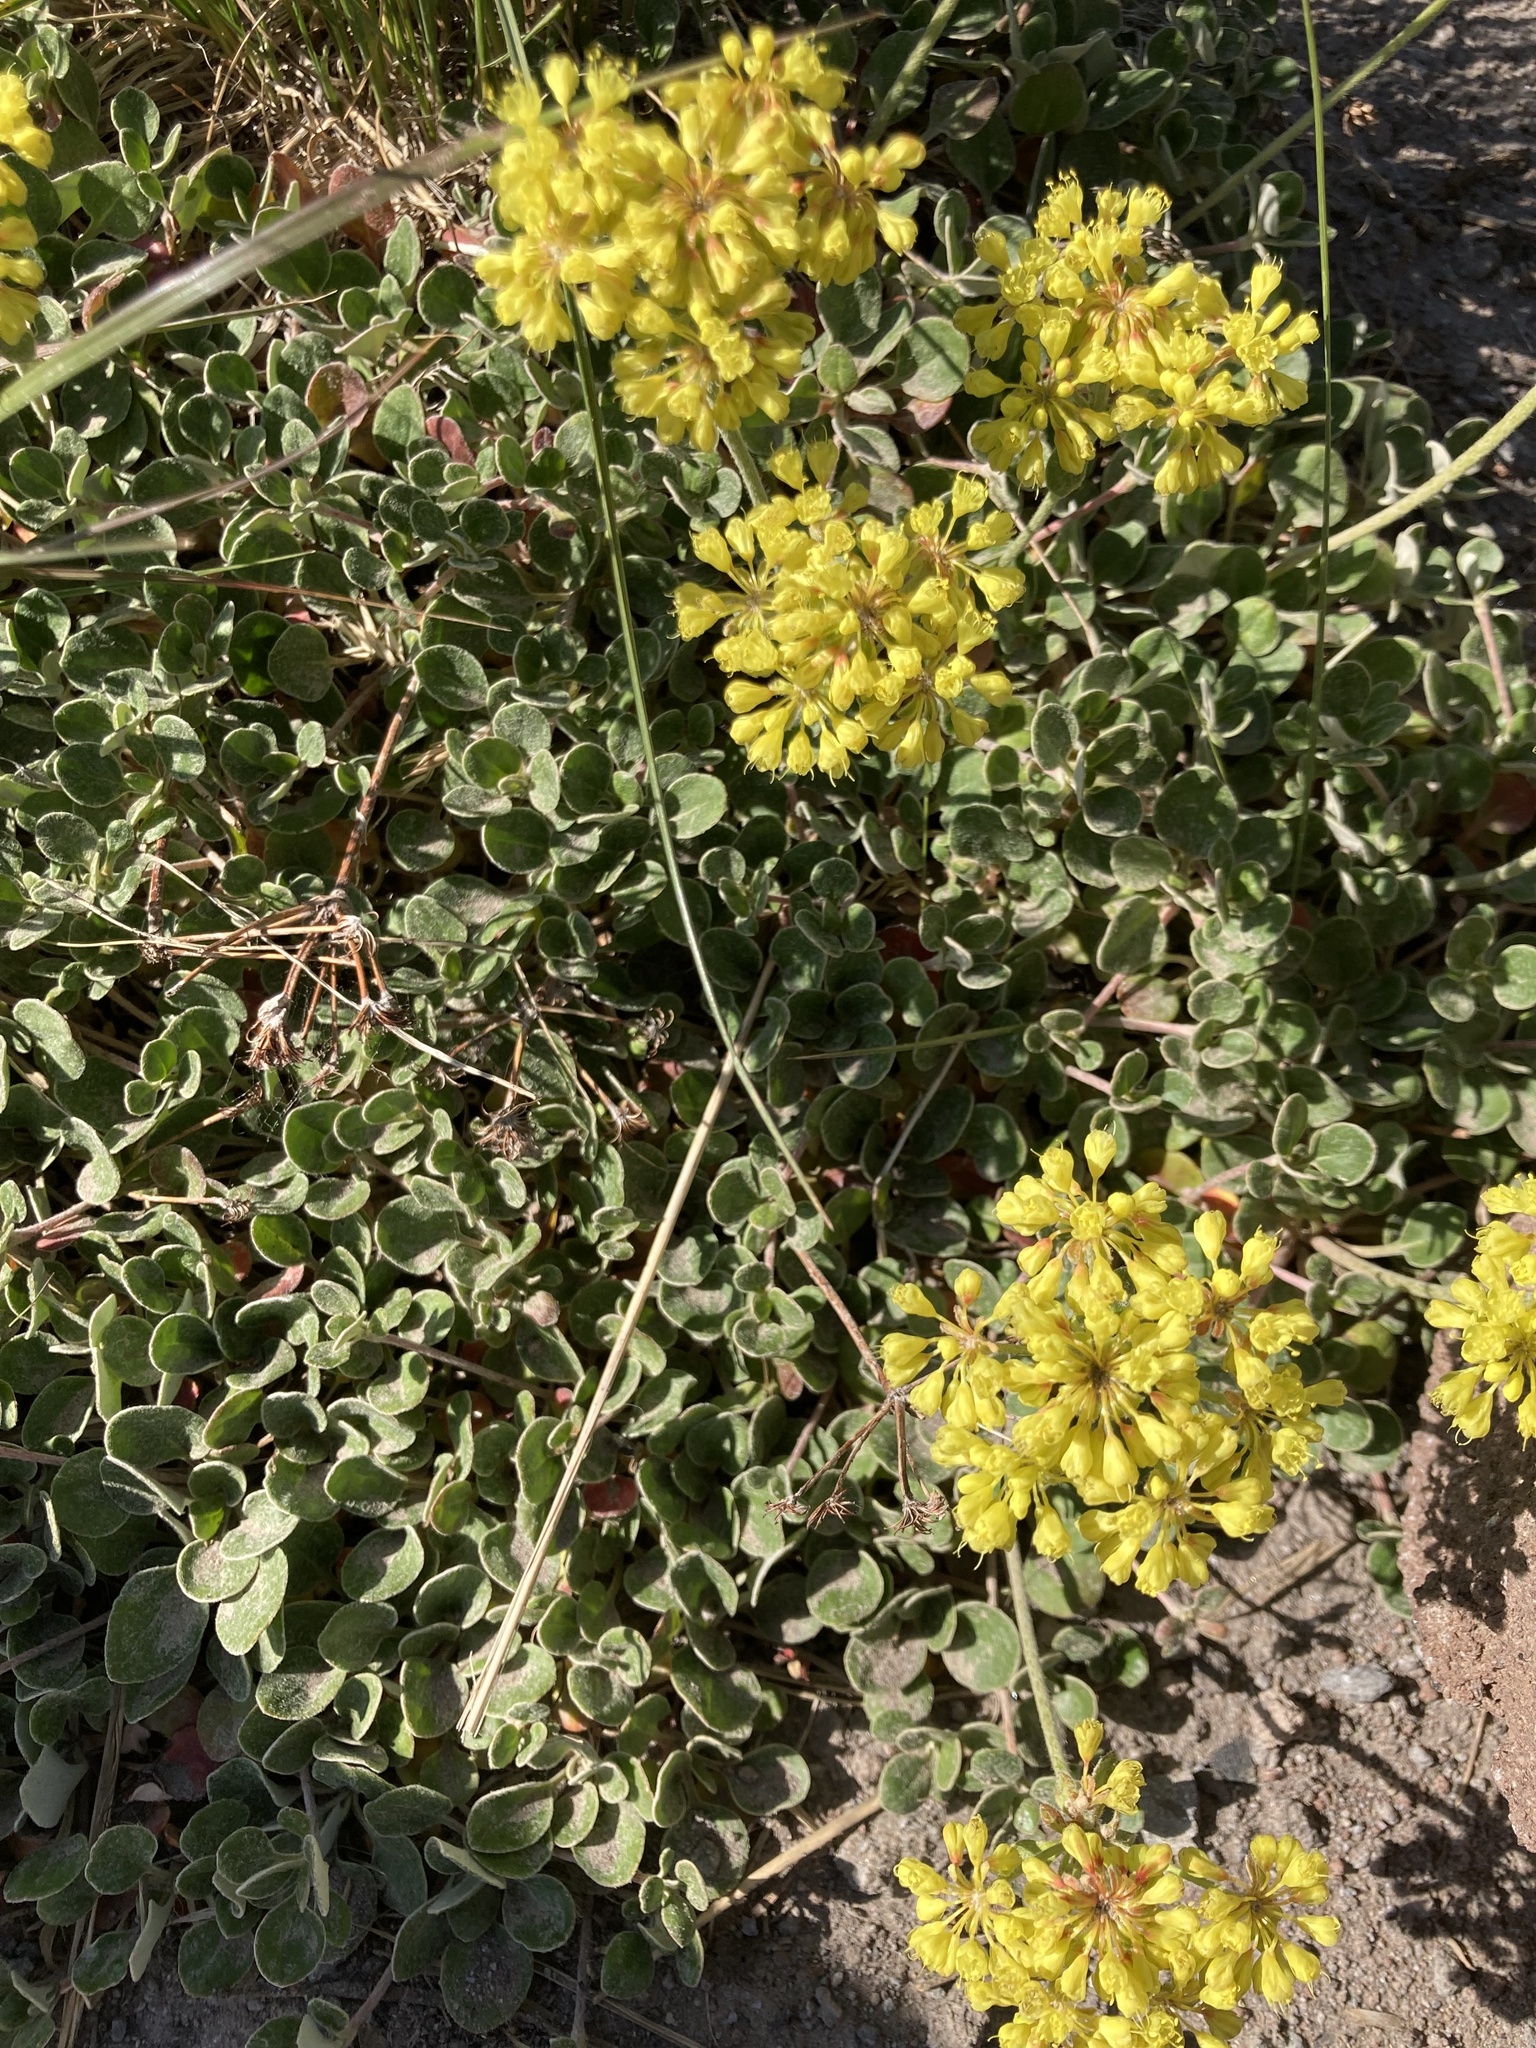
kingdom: Plantae
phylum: Tracheophyta
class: Magnoliopsida
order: Caryophyllales
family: Polygonaceae
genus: Eriogonum
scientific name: Eriogonum umbellatum
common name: Sulfur-buckwheat
